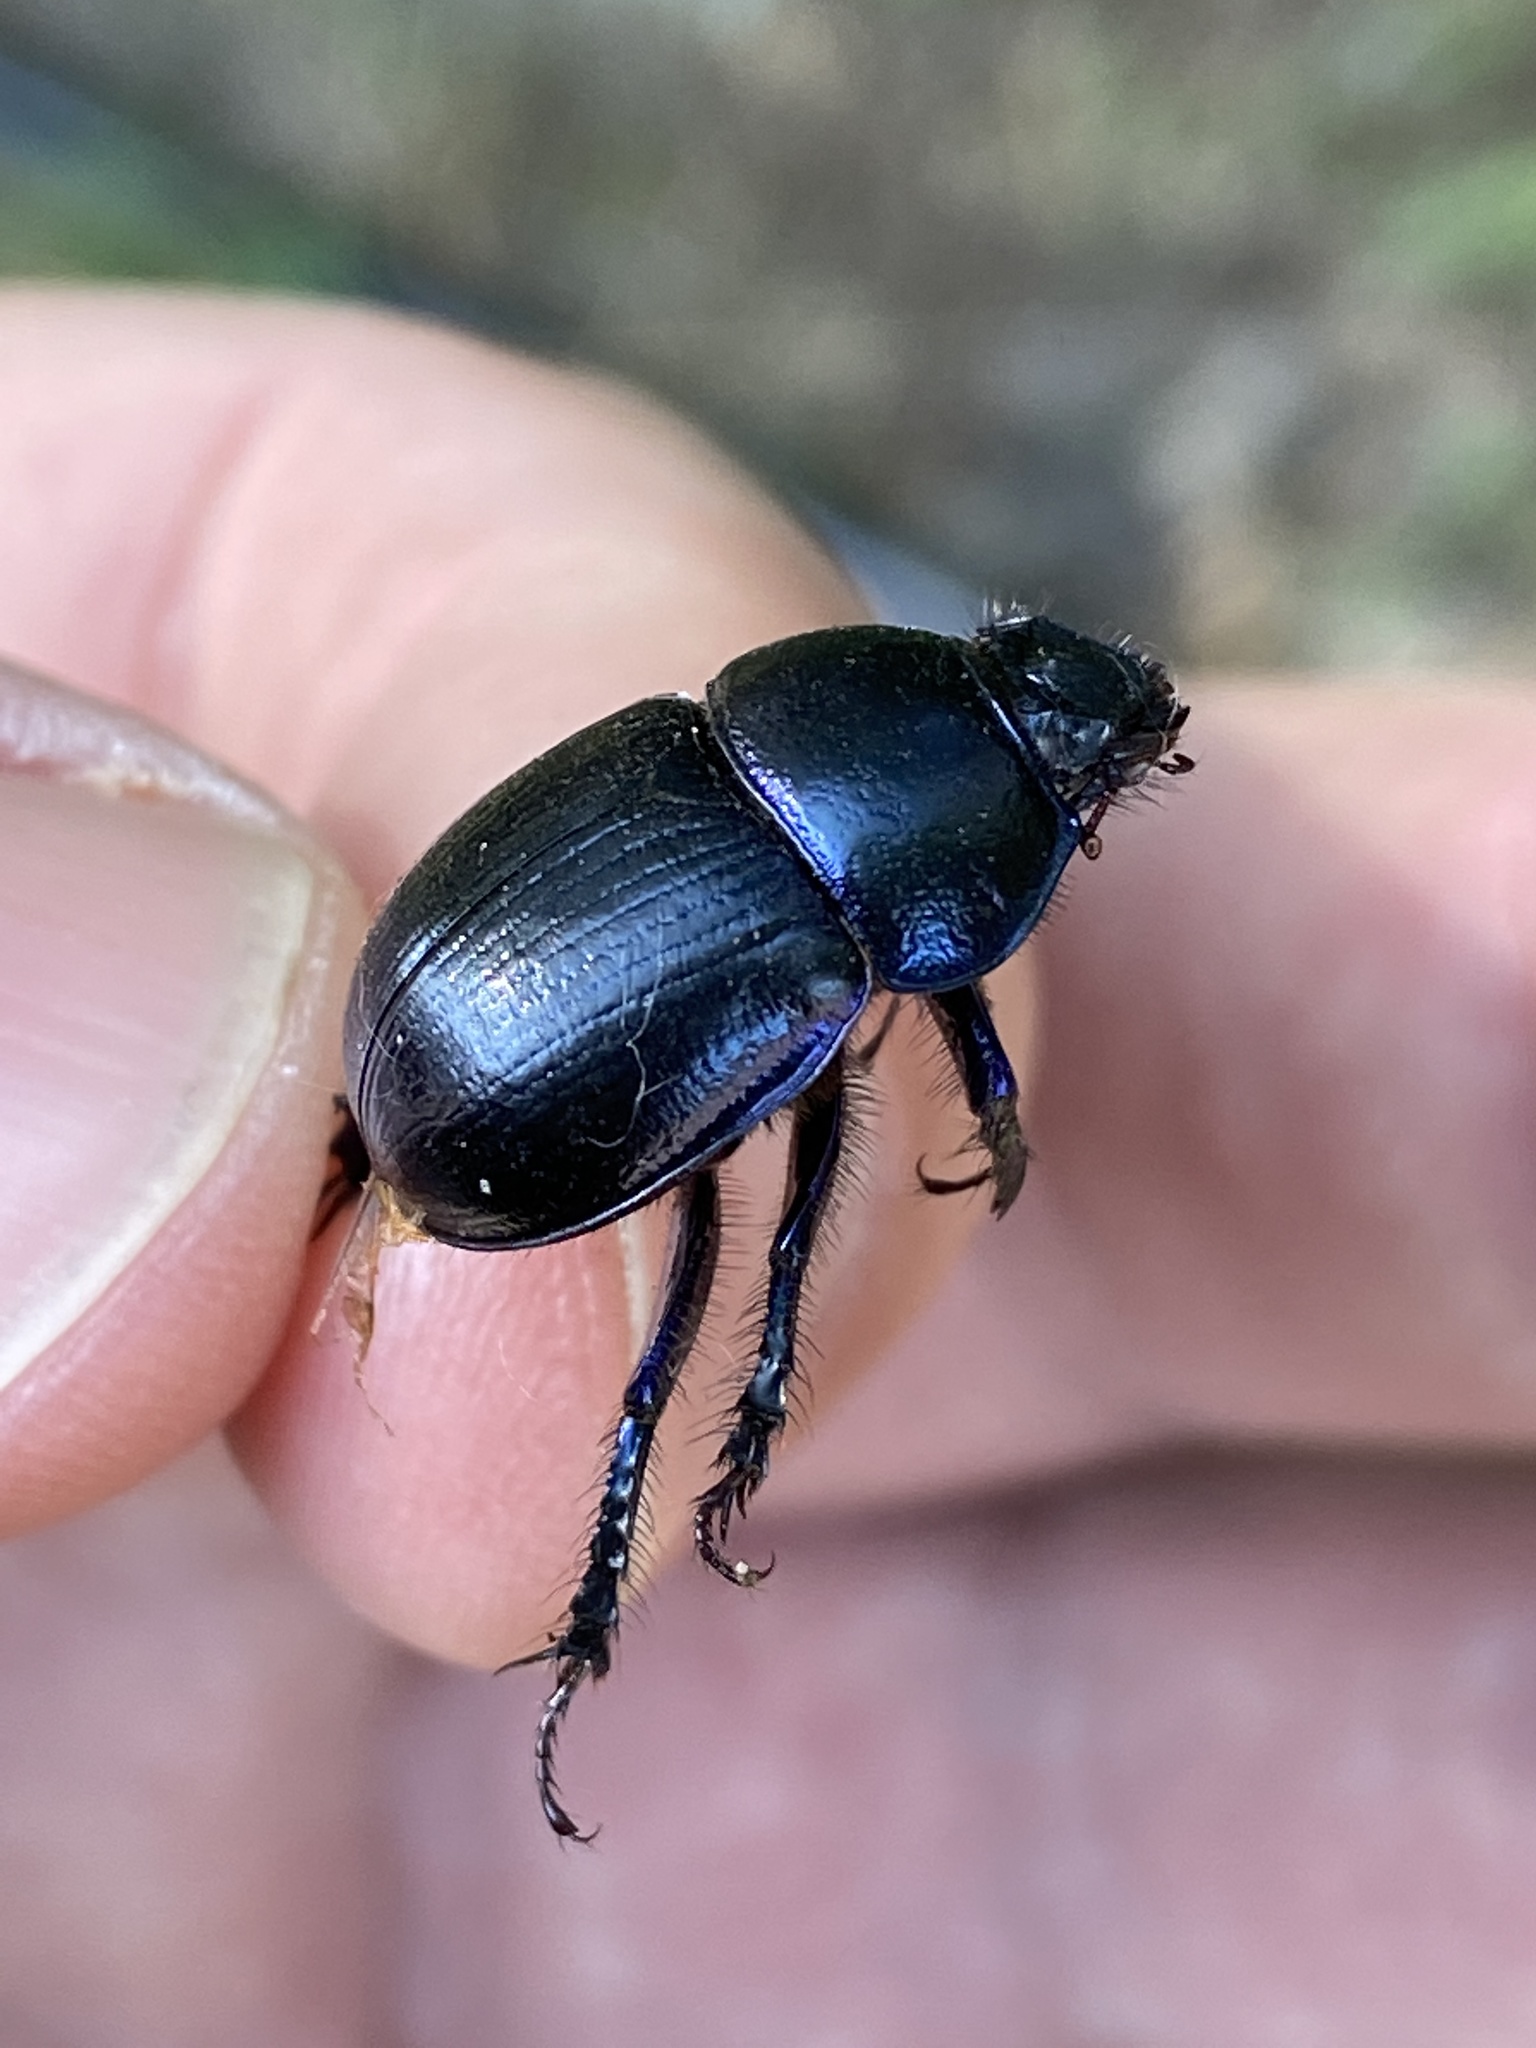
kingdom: Animalia
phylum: Arthropoda
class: Insecta
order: Coleoptera
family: Geotrupidae
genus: Anoplotrupes
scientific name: Anoplotrupes stercorosus
